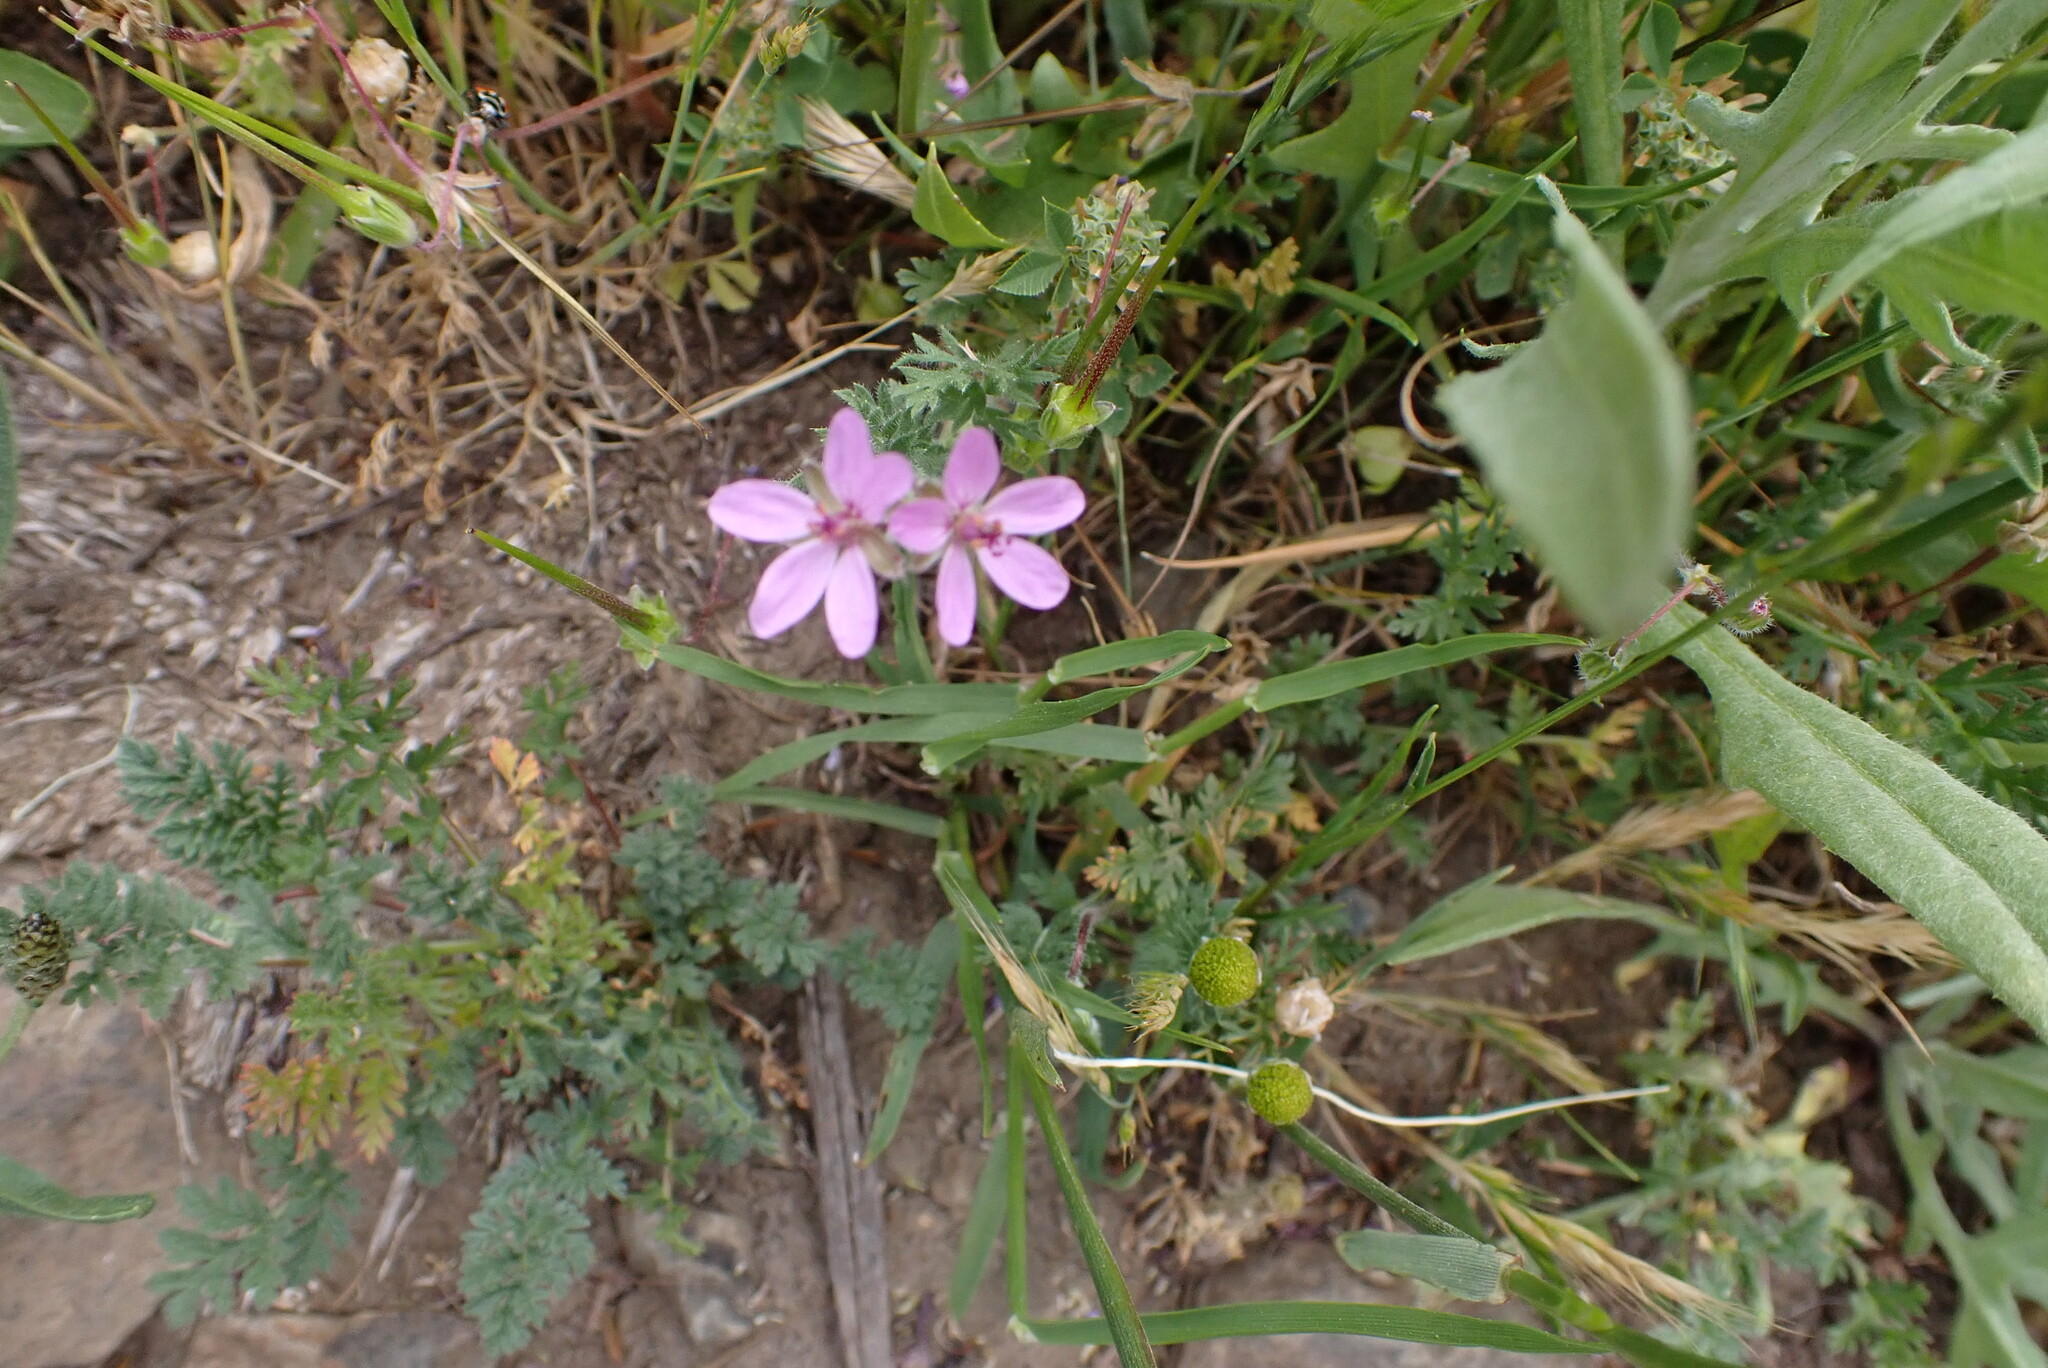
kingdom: Plantae
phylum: Tracheophyta
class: Magnoliopsida
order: Geraniales
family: Geraniaceae
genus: Erodium
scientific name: Erodium cicutarium
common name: Common stork's-bill
